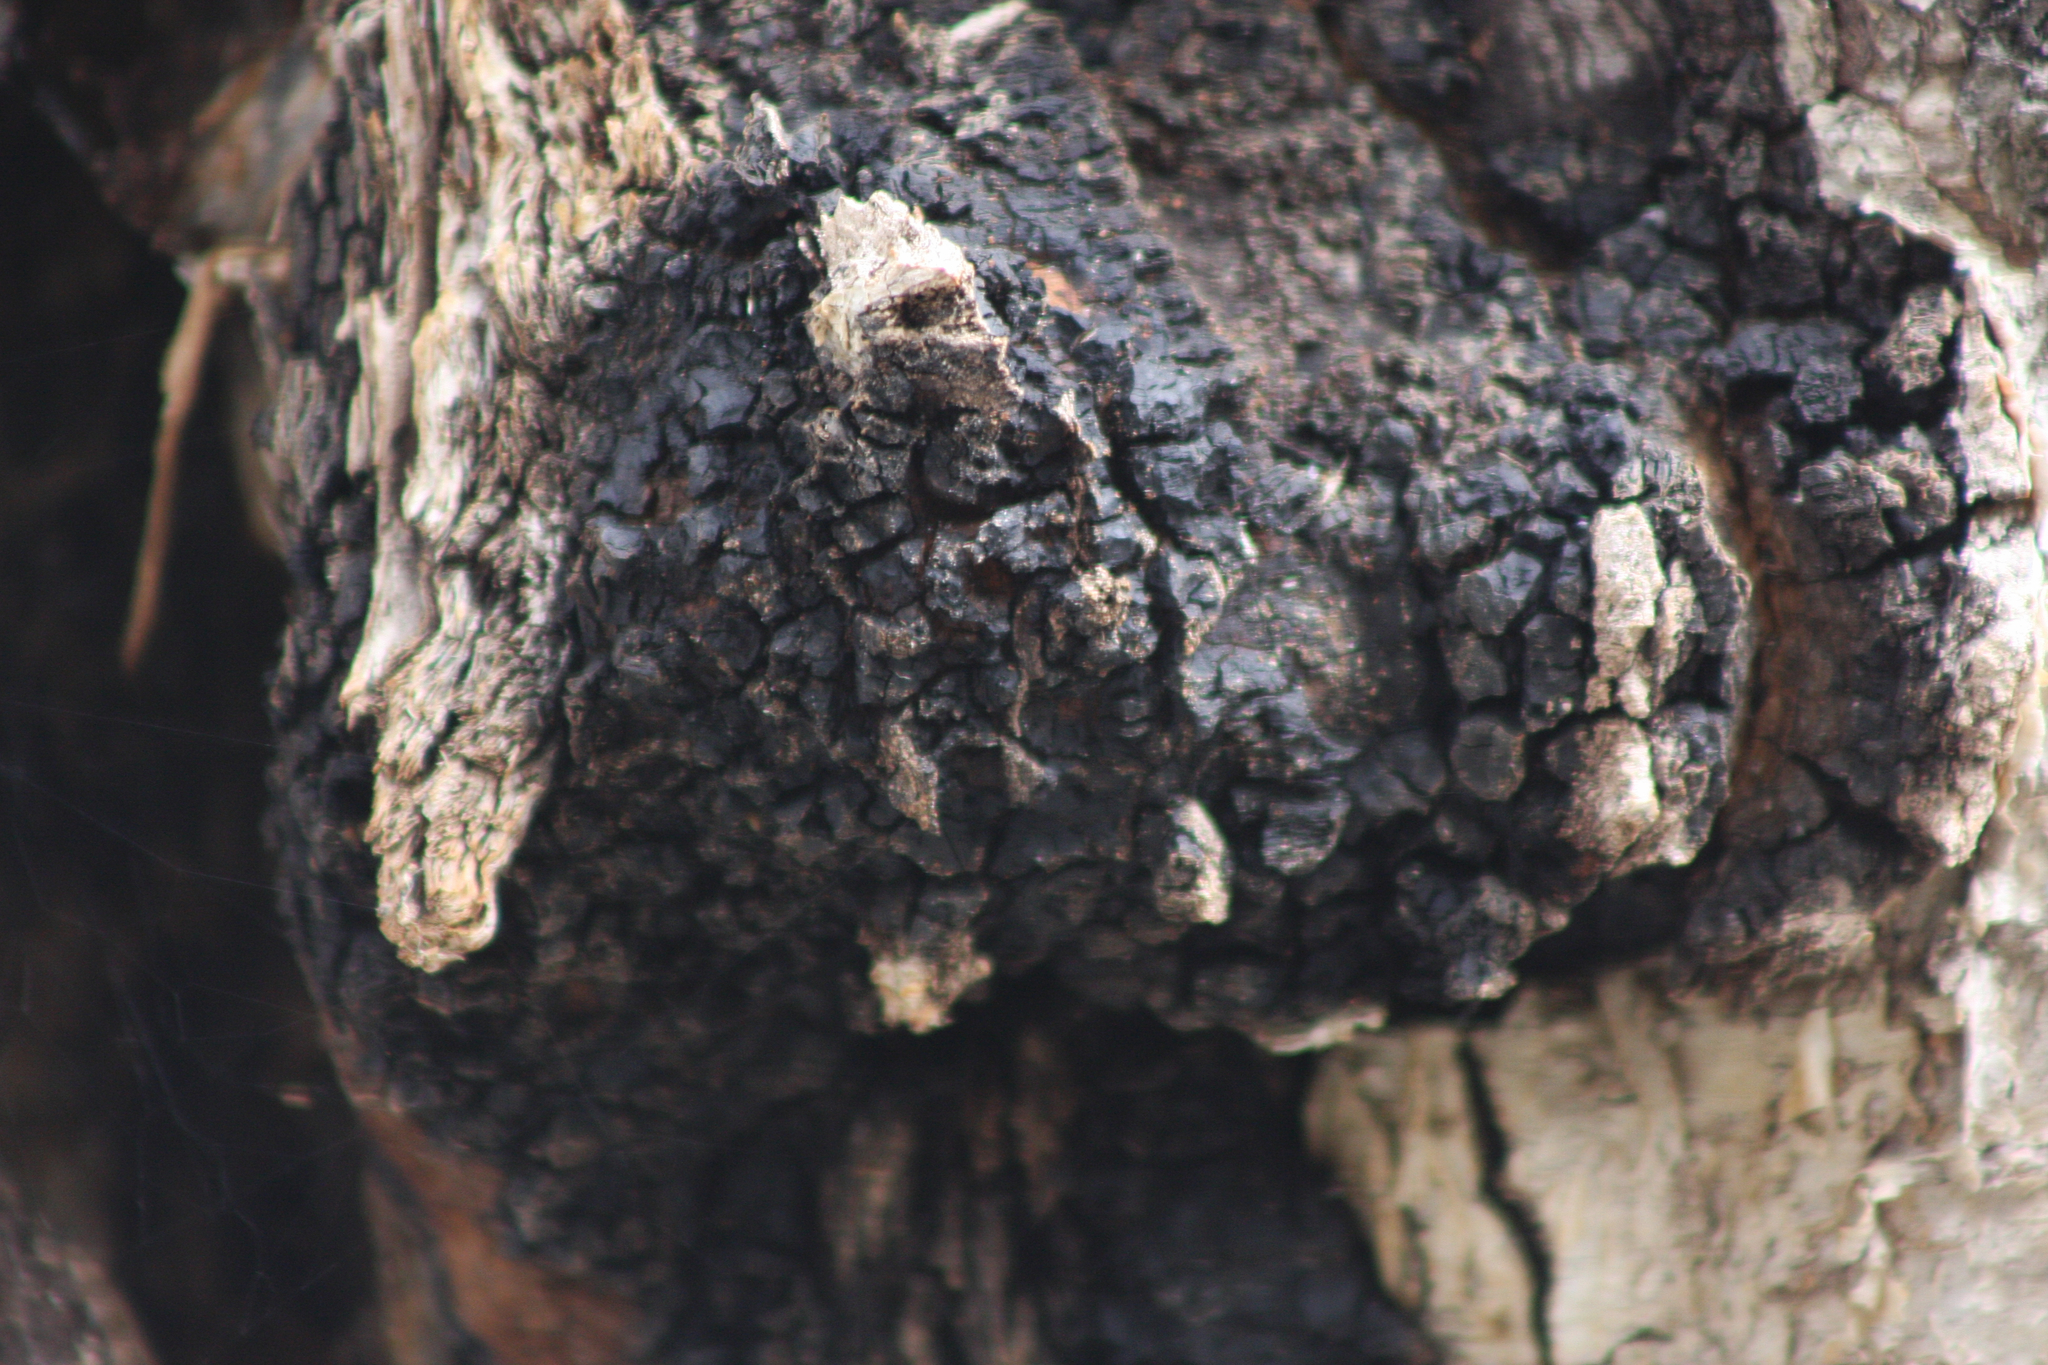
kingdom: Fungi
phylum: Basidiomycota
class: Agaricomycetes
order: Hymenochaetales
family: Hymenochaetaceae
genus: Inonotus
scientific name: Inonotus obliquus
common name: Chaga
